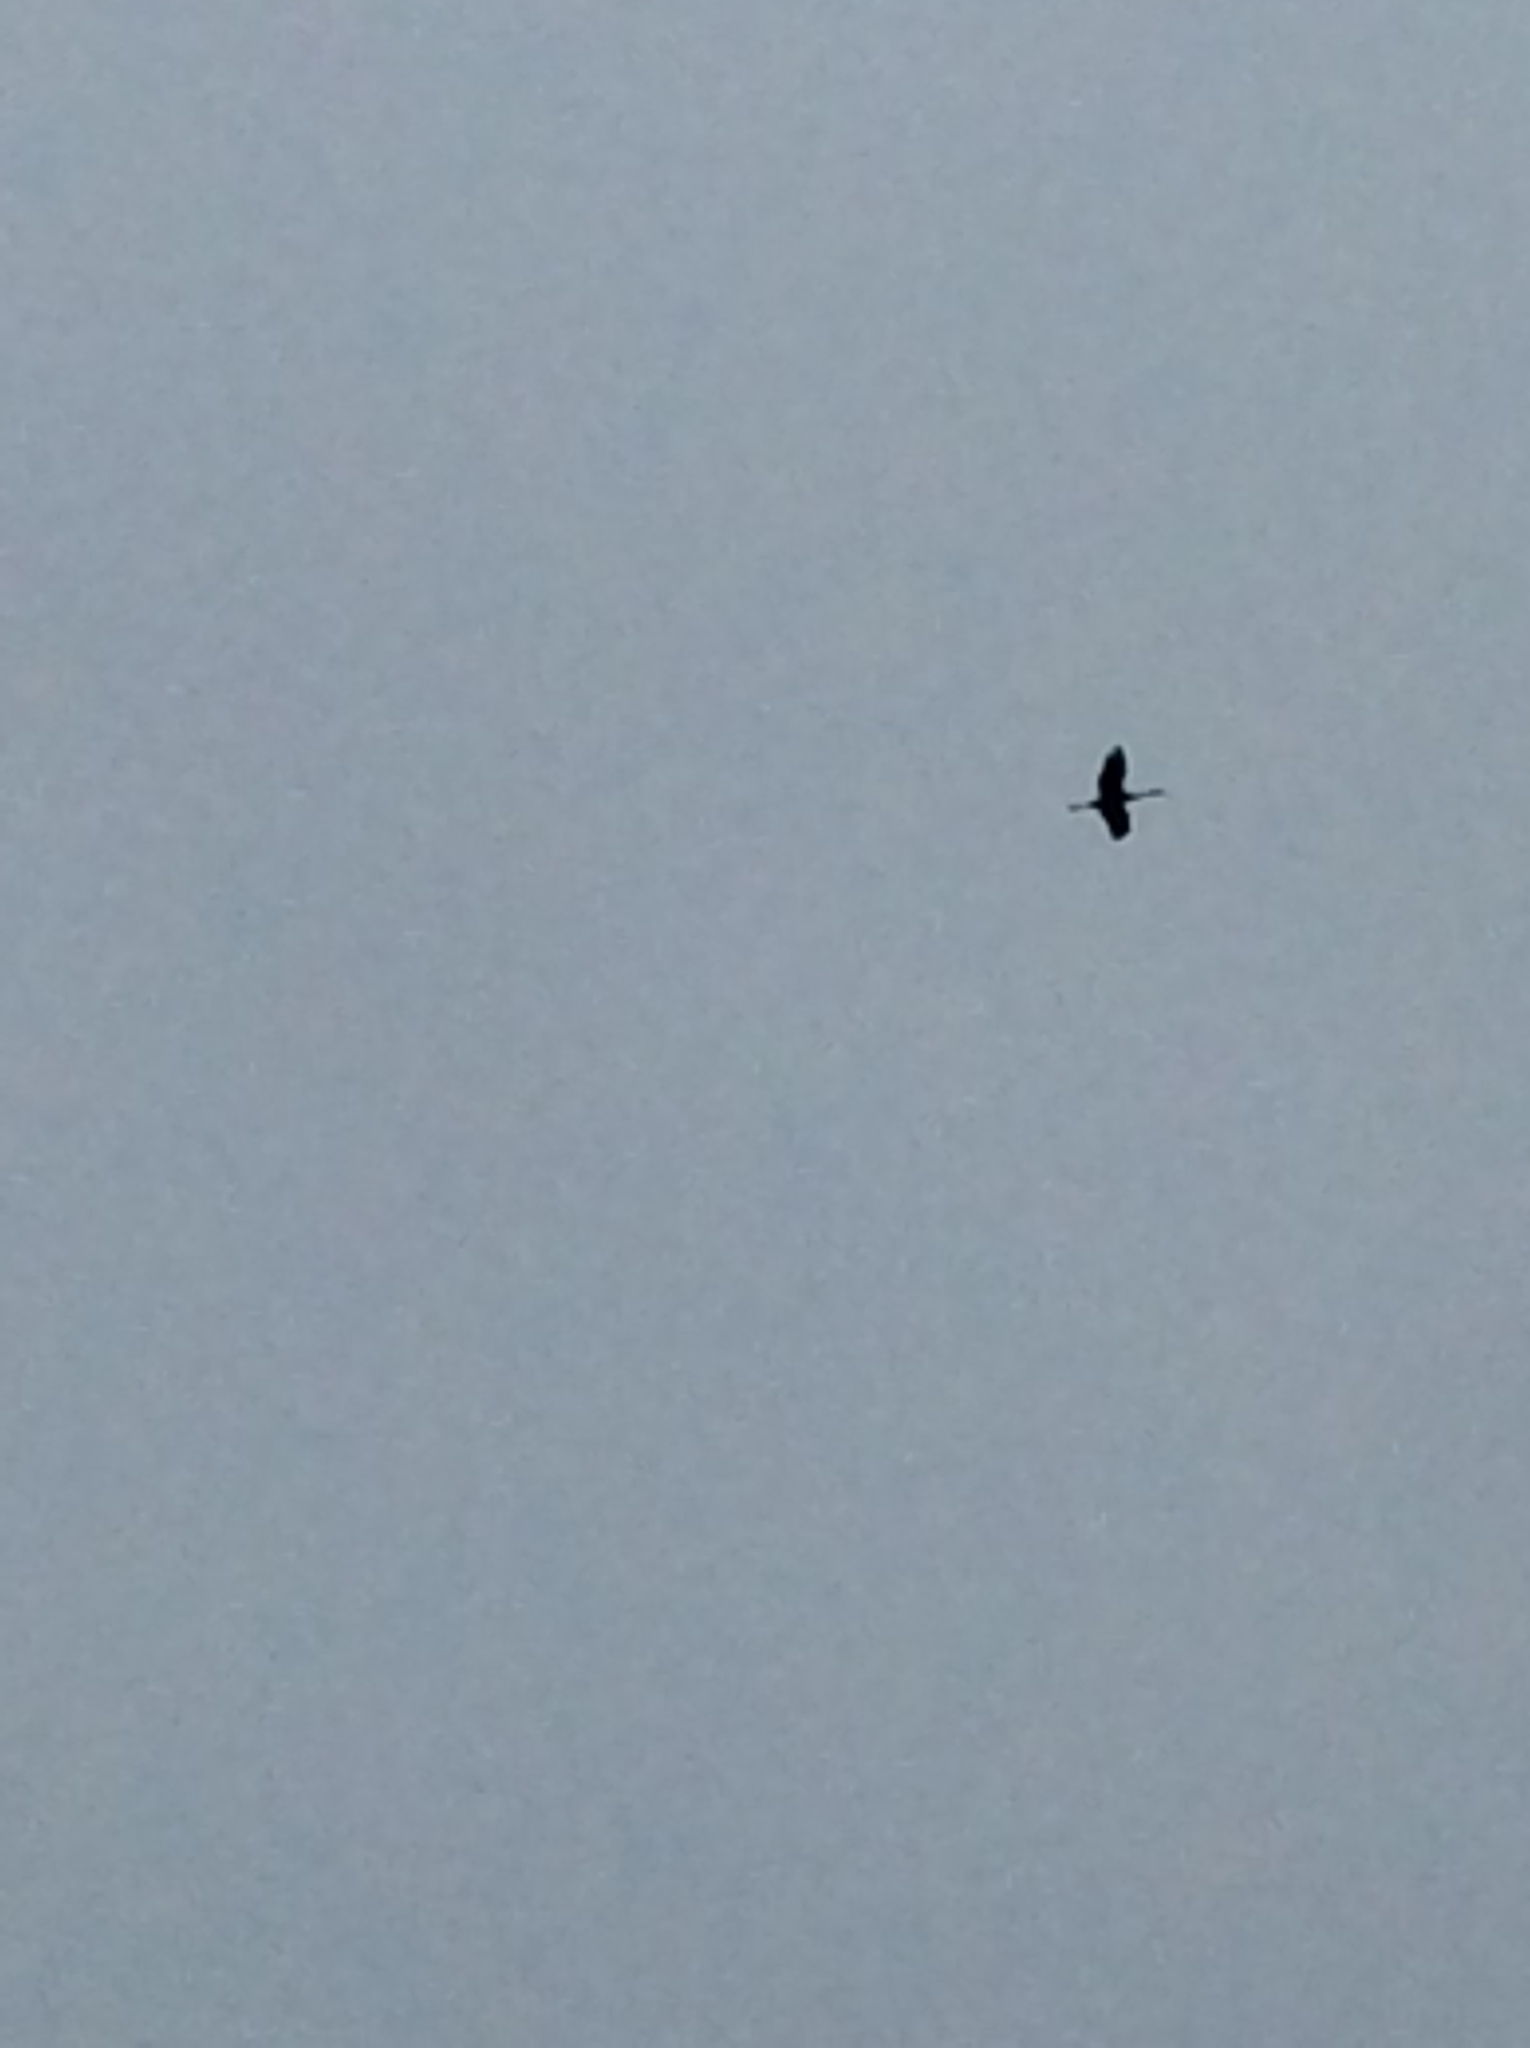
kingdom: Animalia
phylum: Chordata
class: Aves
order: Gruiformes
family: Gruidae
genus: Grus
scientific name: Grus canadensis
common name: Sandhill crane
